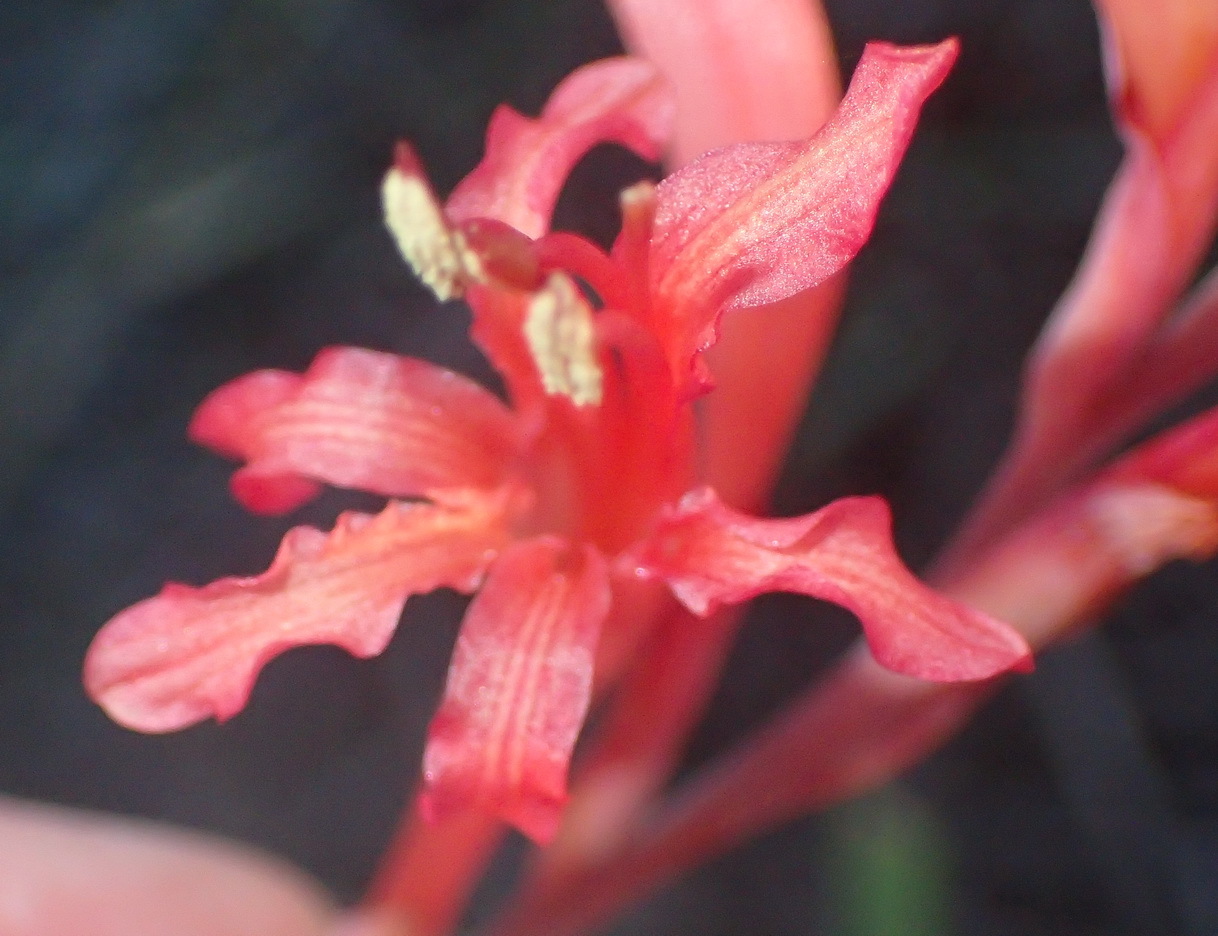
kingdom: Plantae
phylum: Tracheophyta
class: Liliopsida
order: Asparagales
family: Iridaceae
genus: Tritoniopsis
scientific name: Tritoniopsis antholyza
